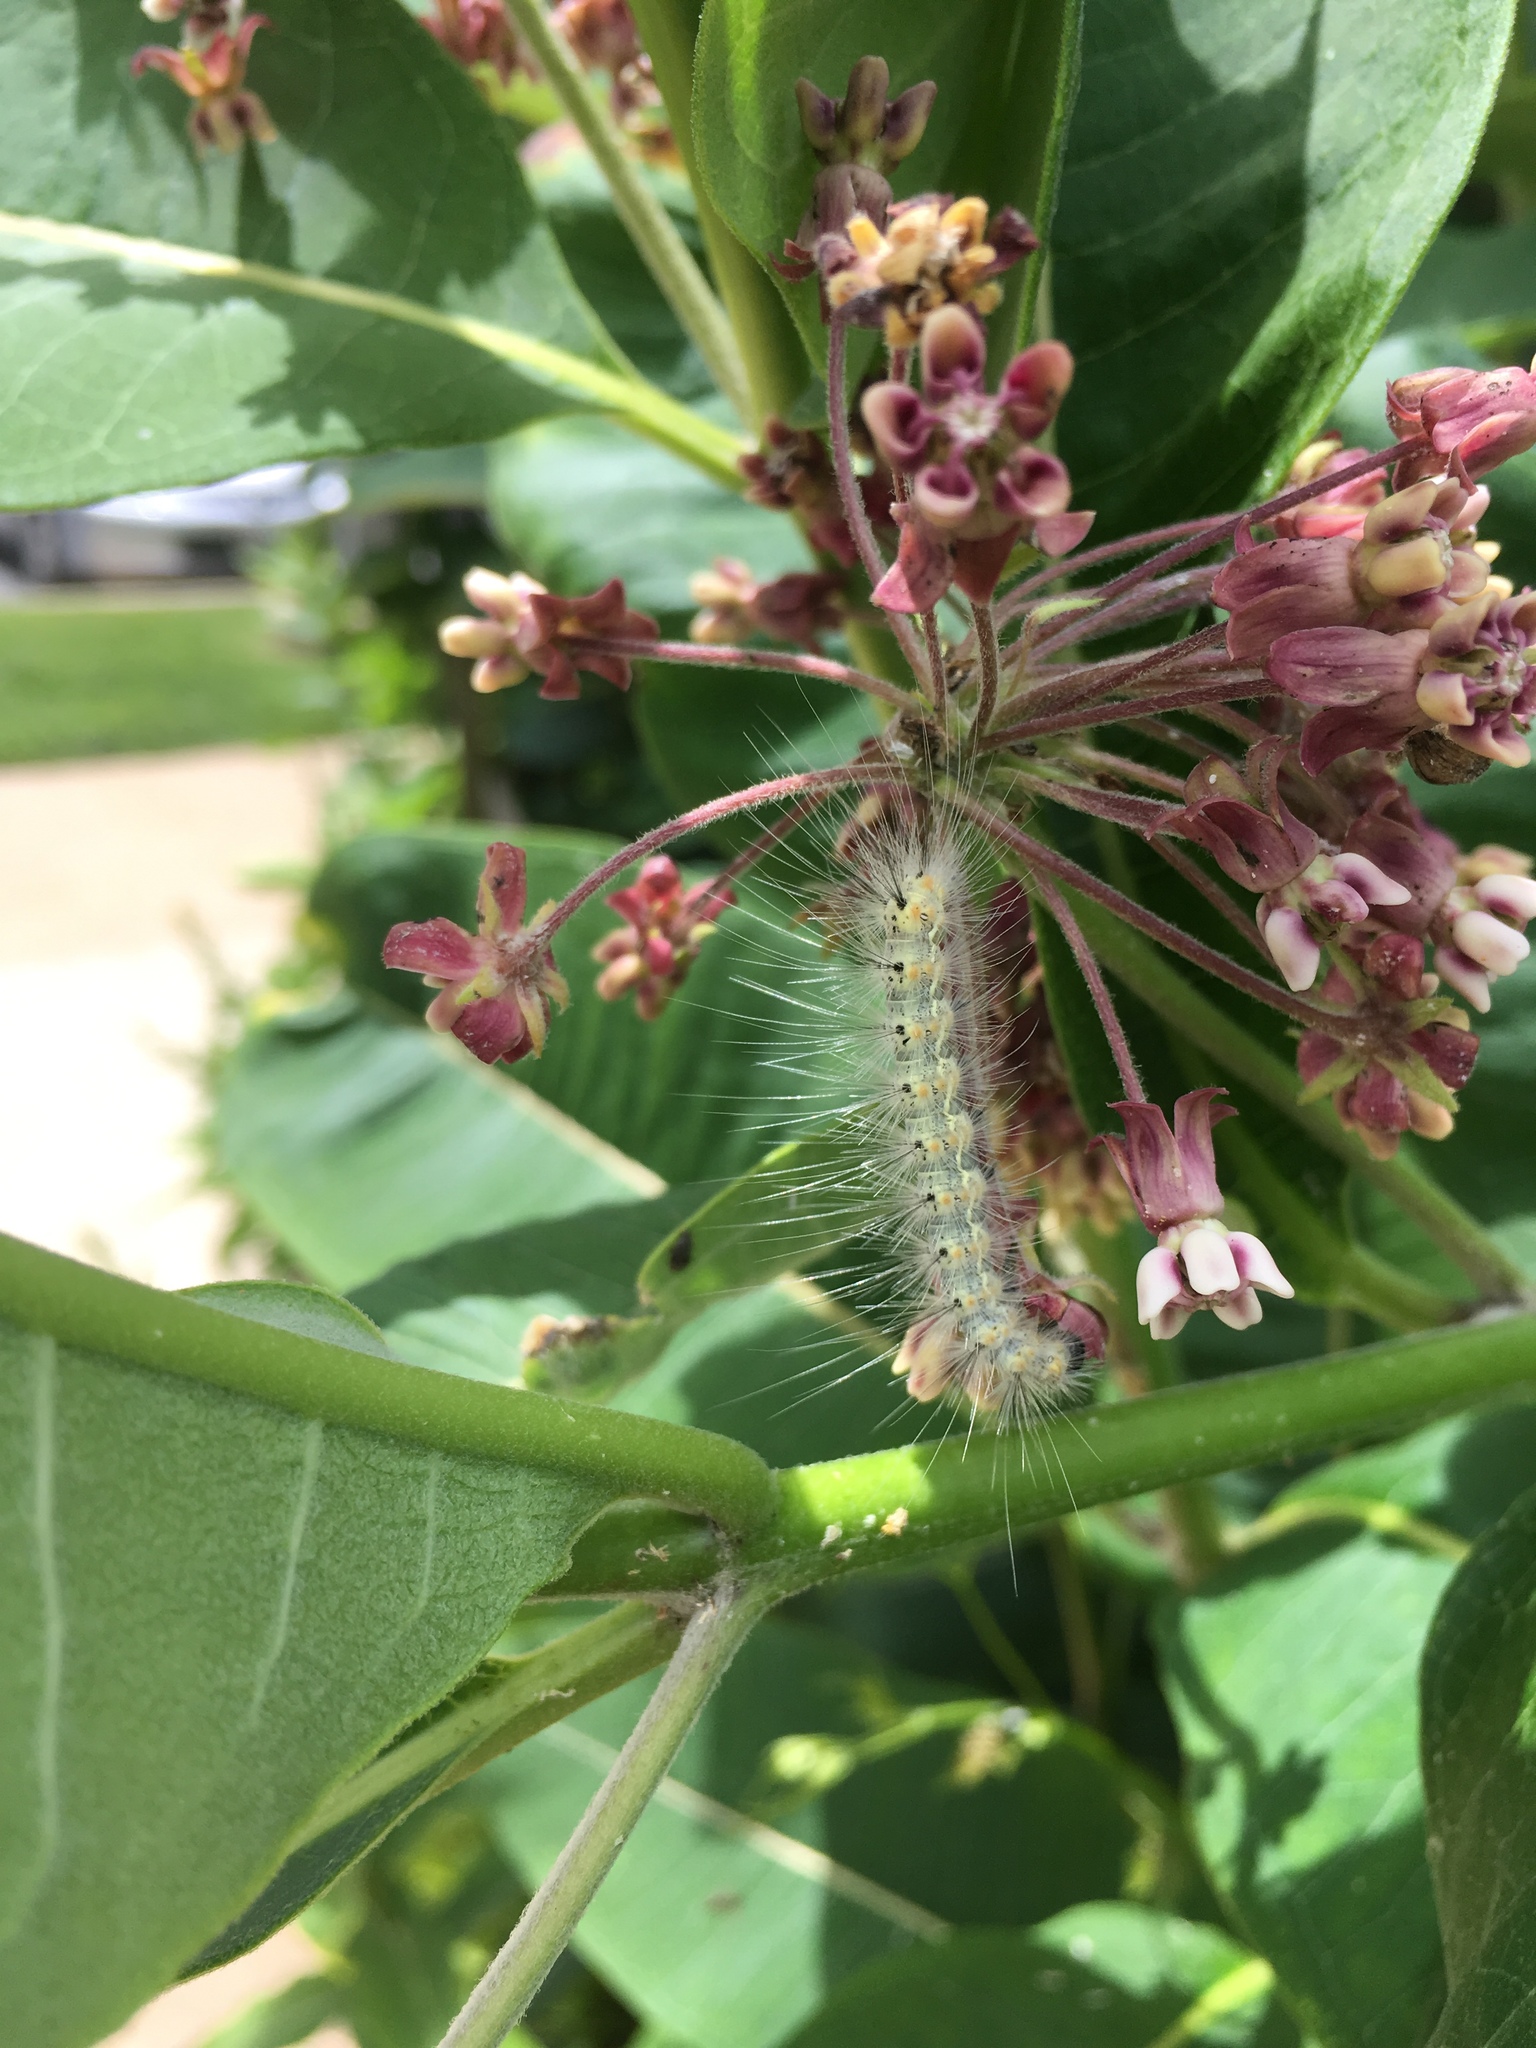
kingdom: Animalia
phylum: Arthropoda
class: Insecta
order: Lepidoptera
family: Erebidae
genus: Hyphantria
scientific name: Hyphantria cunea
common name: American white moth
